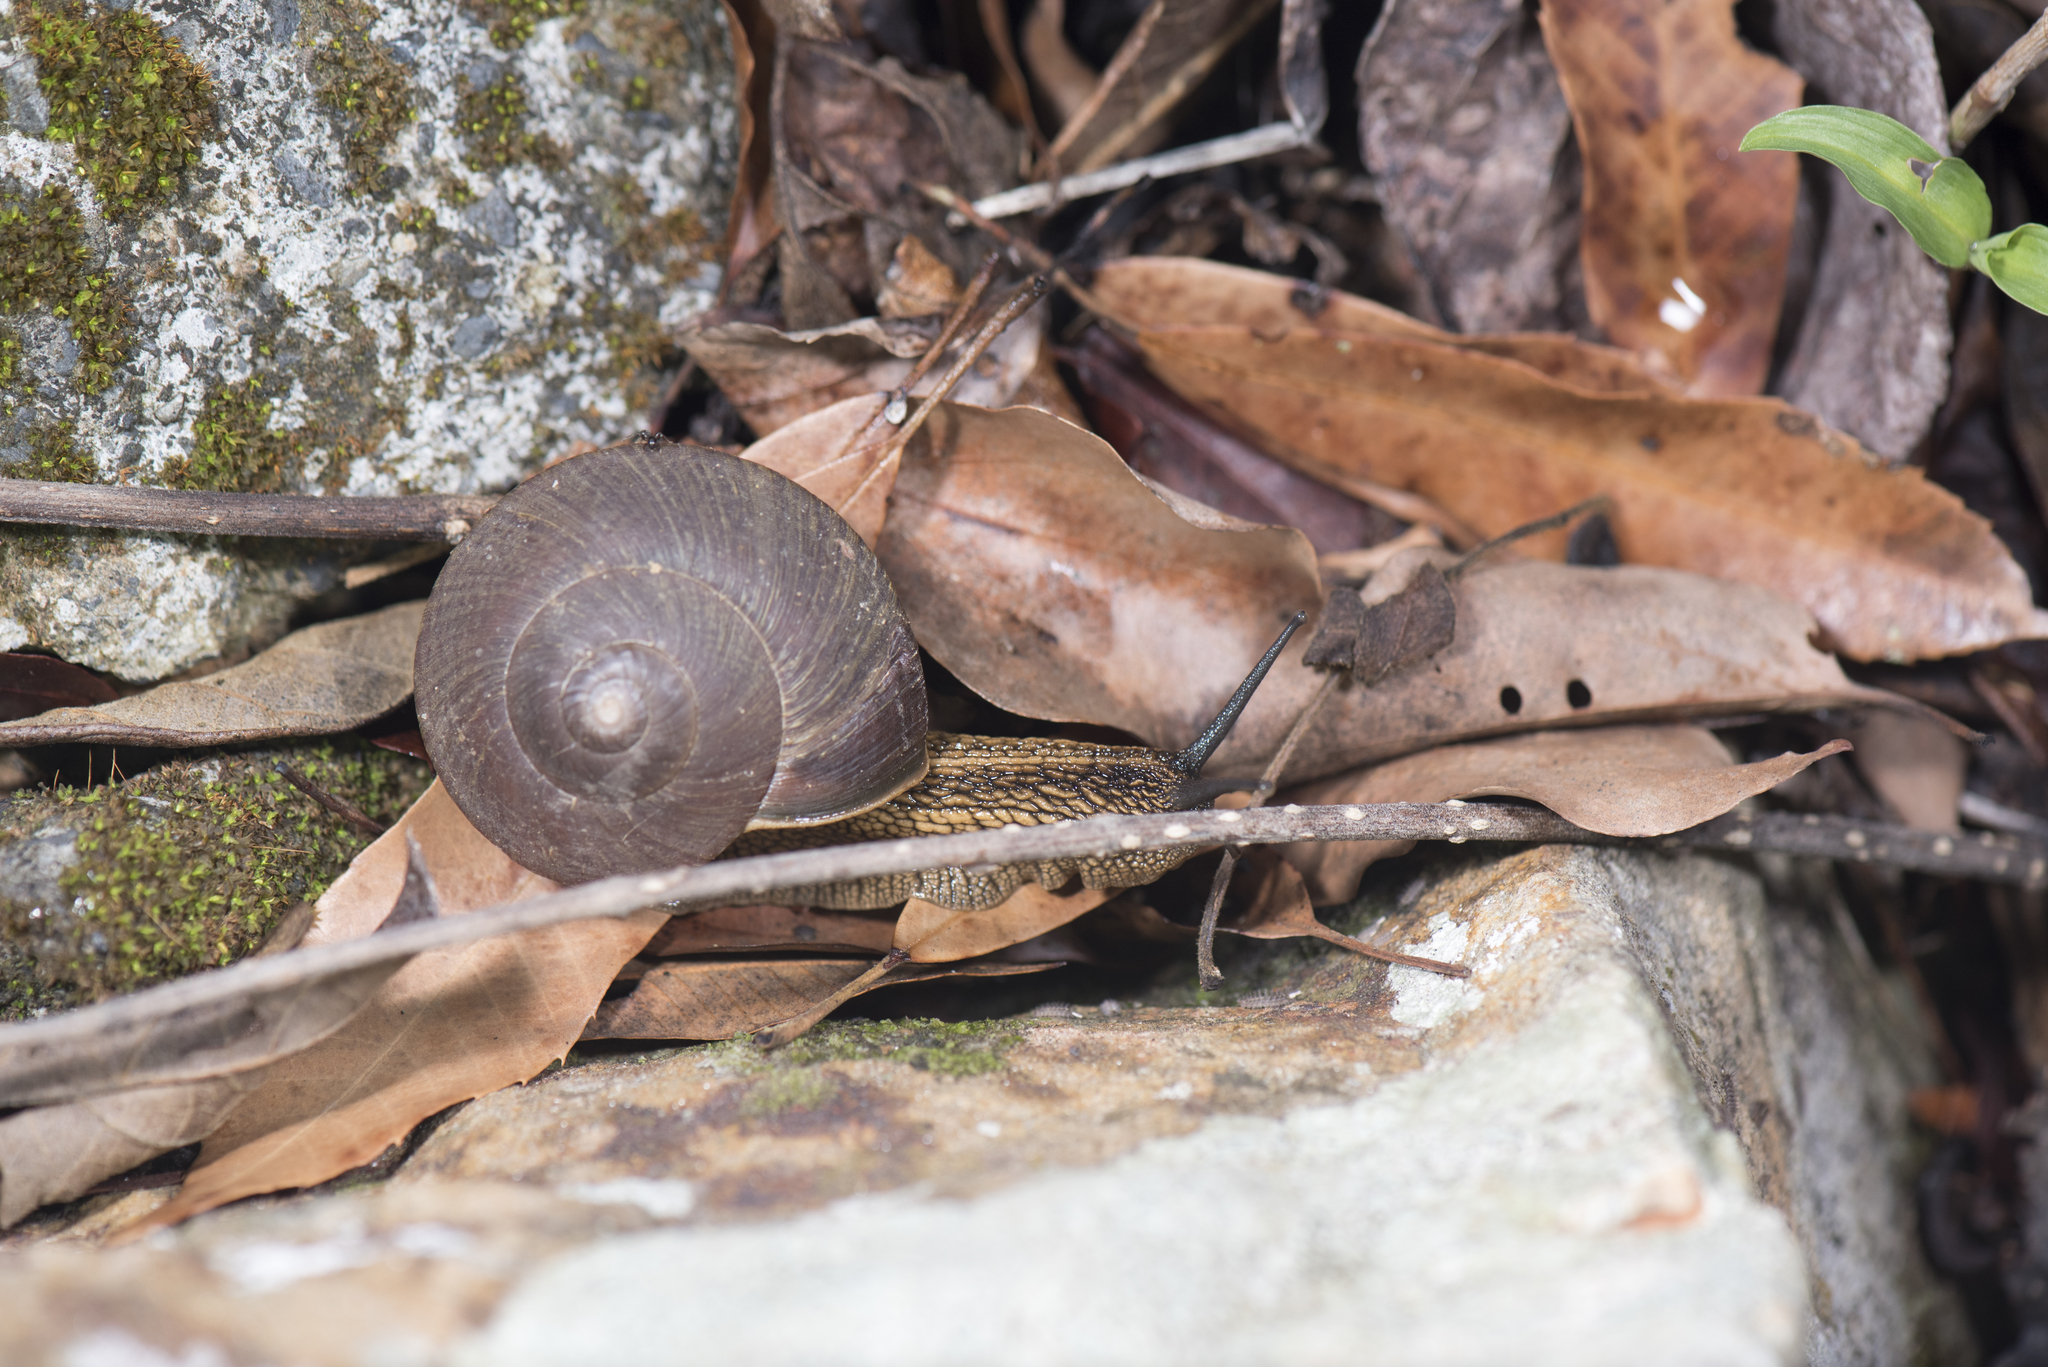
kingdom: Animalia
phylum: Mollusca
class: Gastropoda
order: Stylommatophora
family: Camaenidae
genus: Nesiohelix
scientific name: Nesiohelix swinhoei
